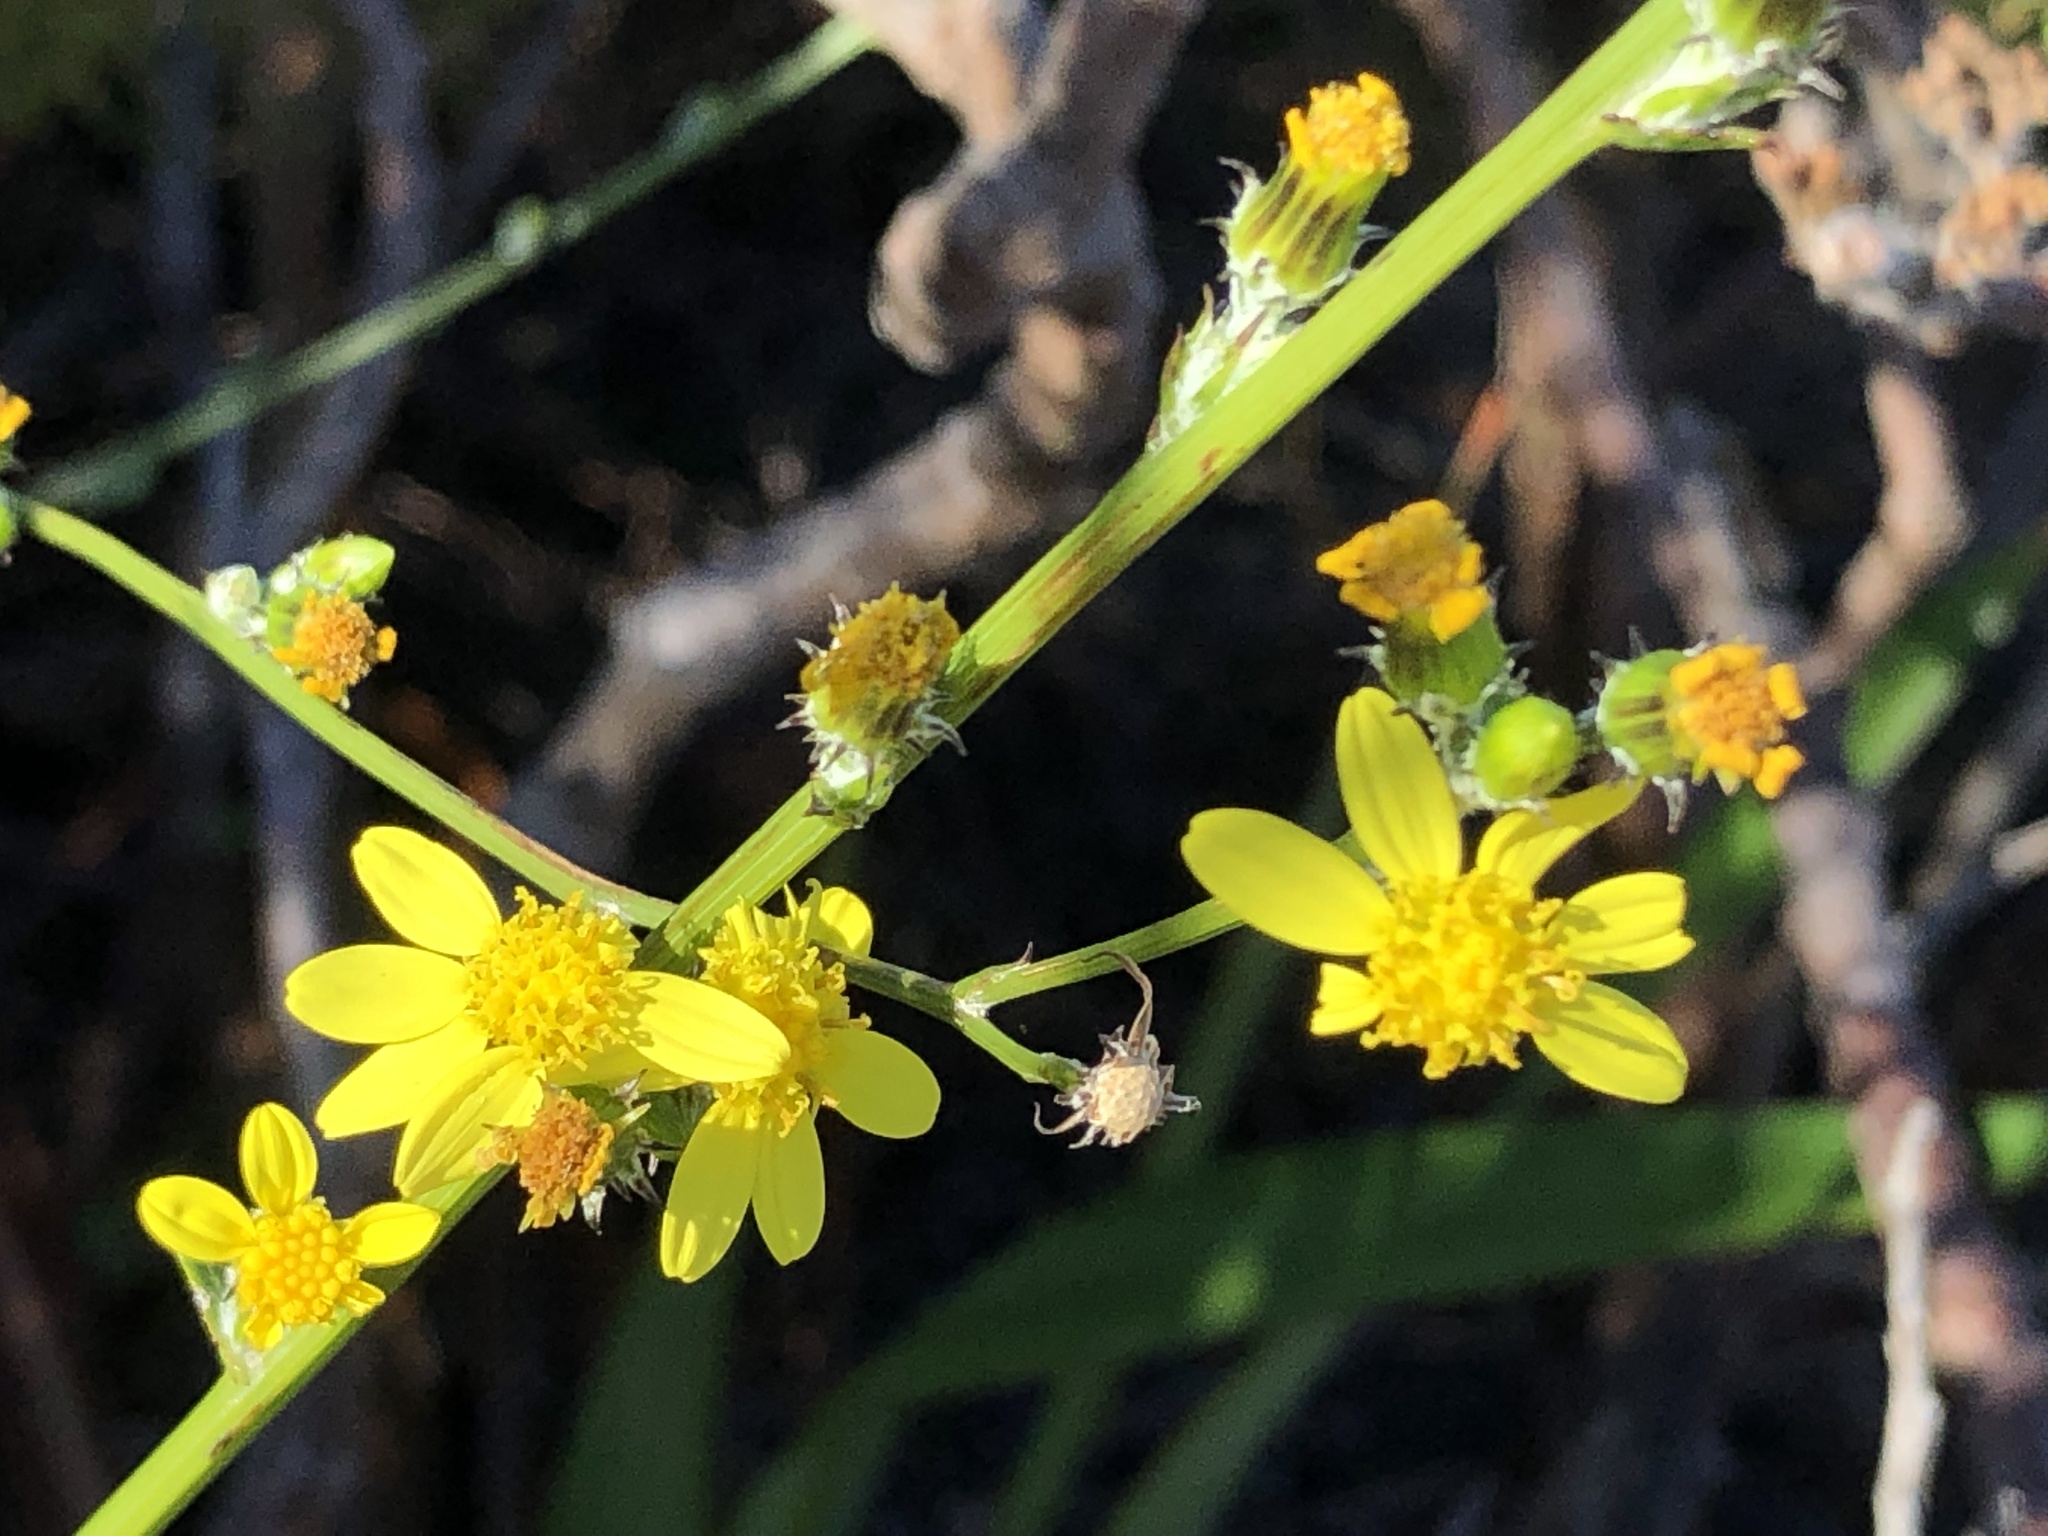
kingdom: Plantae
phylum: Tracheophyta
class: Magnoliopsida
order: Asterales
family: Asteraceae
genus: Senecio
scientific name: Senecio pubigerus
